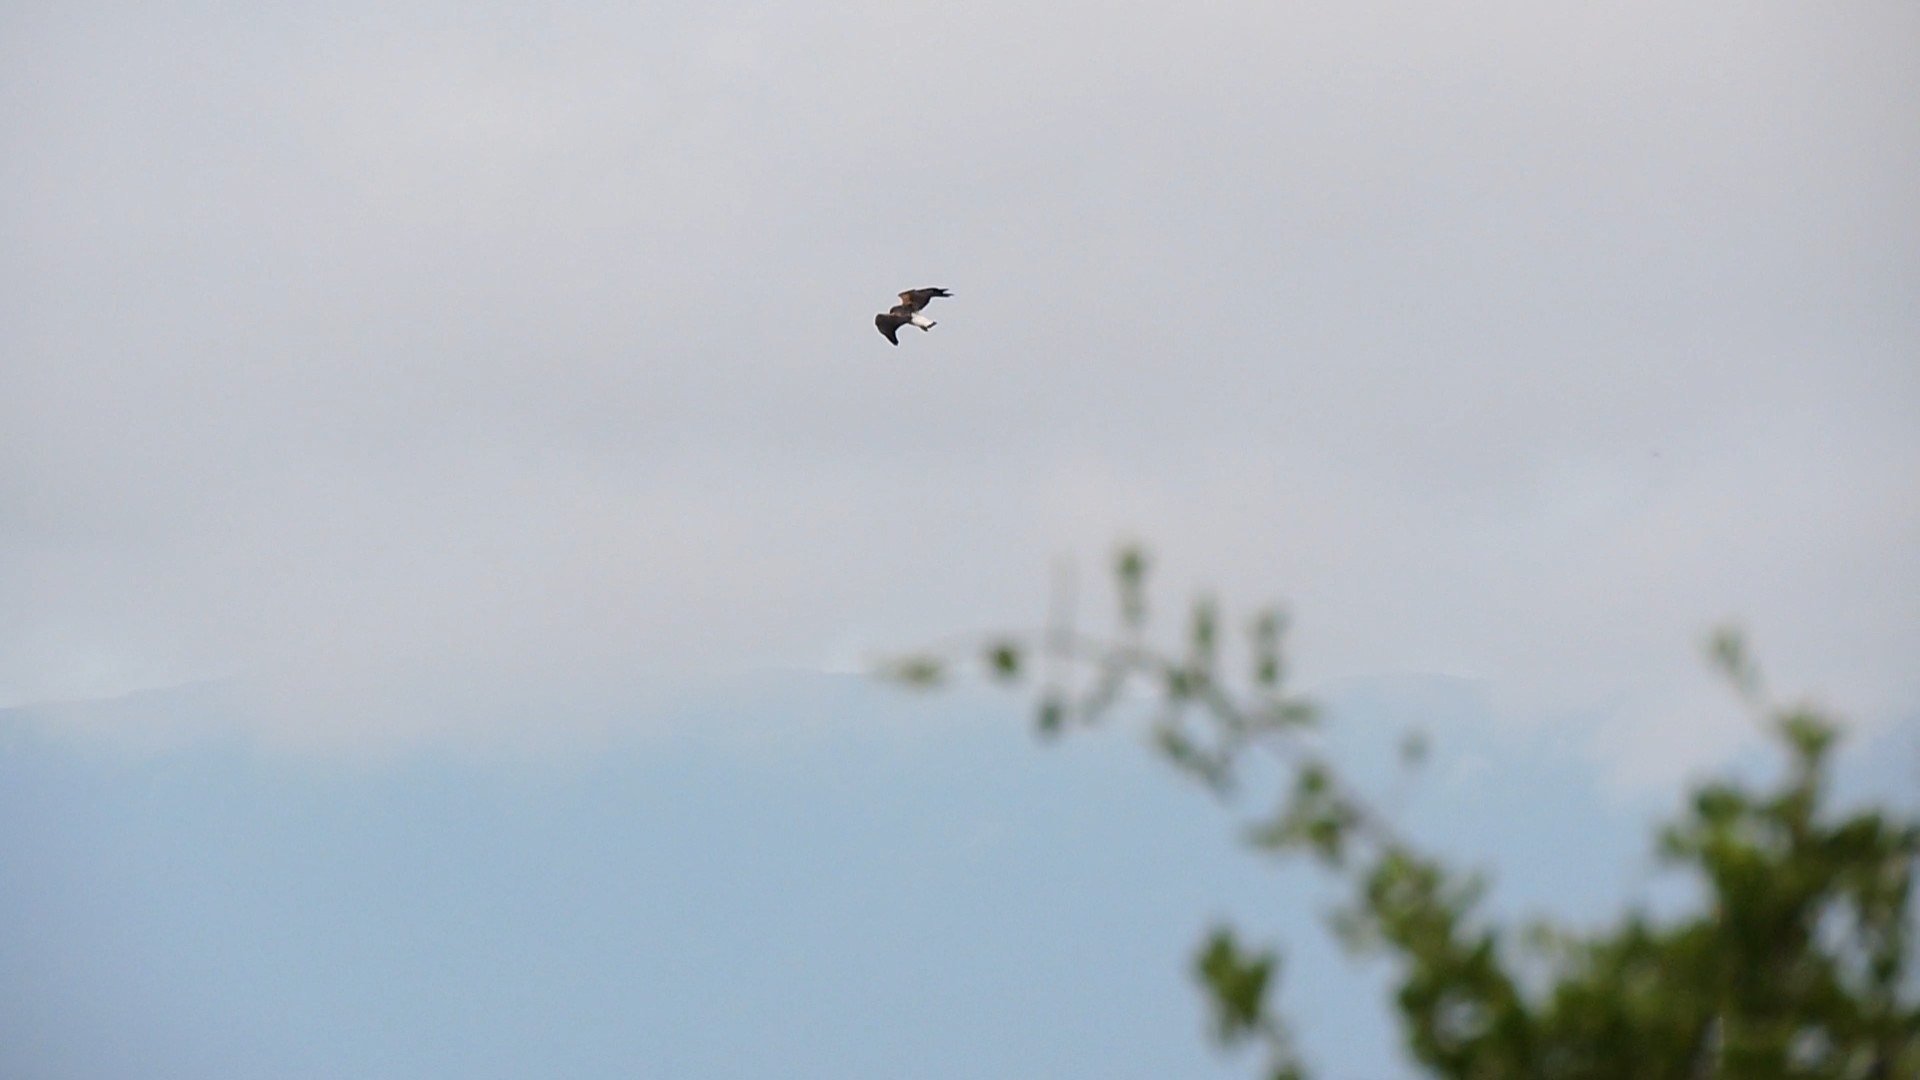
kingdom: Animalia
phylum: Chordata
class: Aves
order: Accipitriformes
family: Accipitridae
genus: Buteo
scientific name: Buteo albicaudatus
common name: White-tailed hawk
